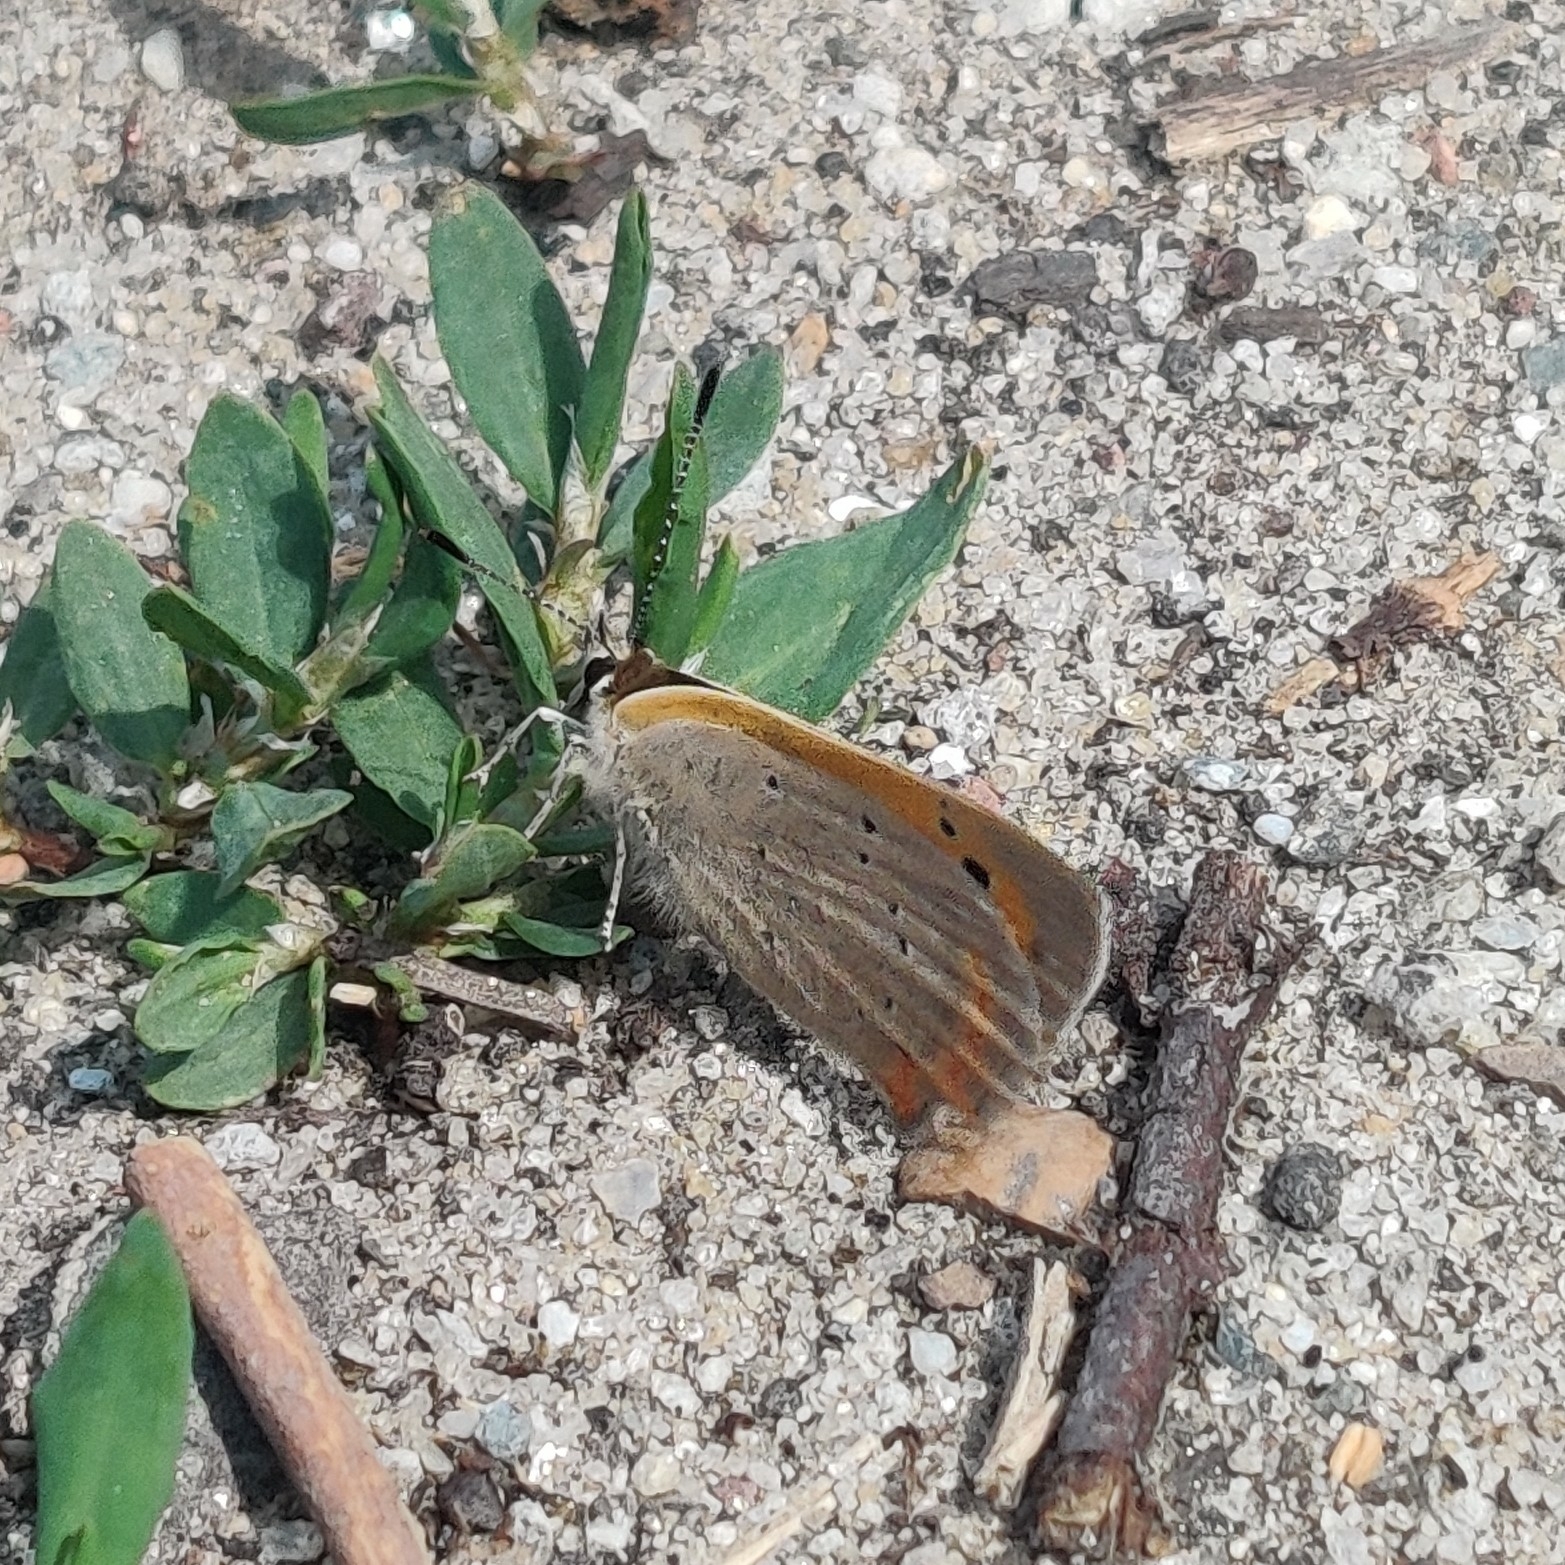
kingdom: Animalia
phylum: Arthropoda
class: Insecta
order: Lepidoptera
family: Lycaenidae
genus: Lycaena
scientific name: Lycaena phlaeas
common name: Small copper
